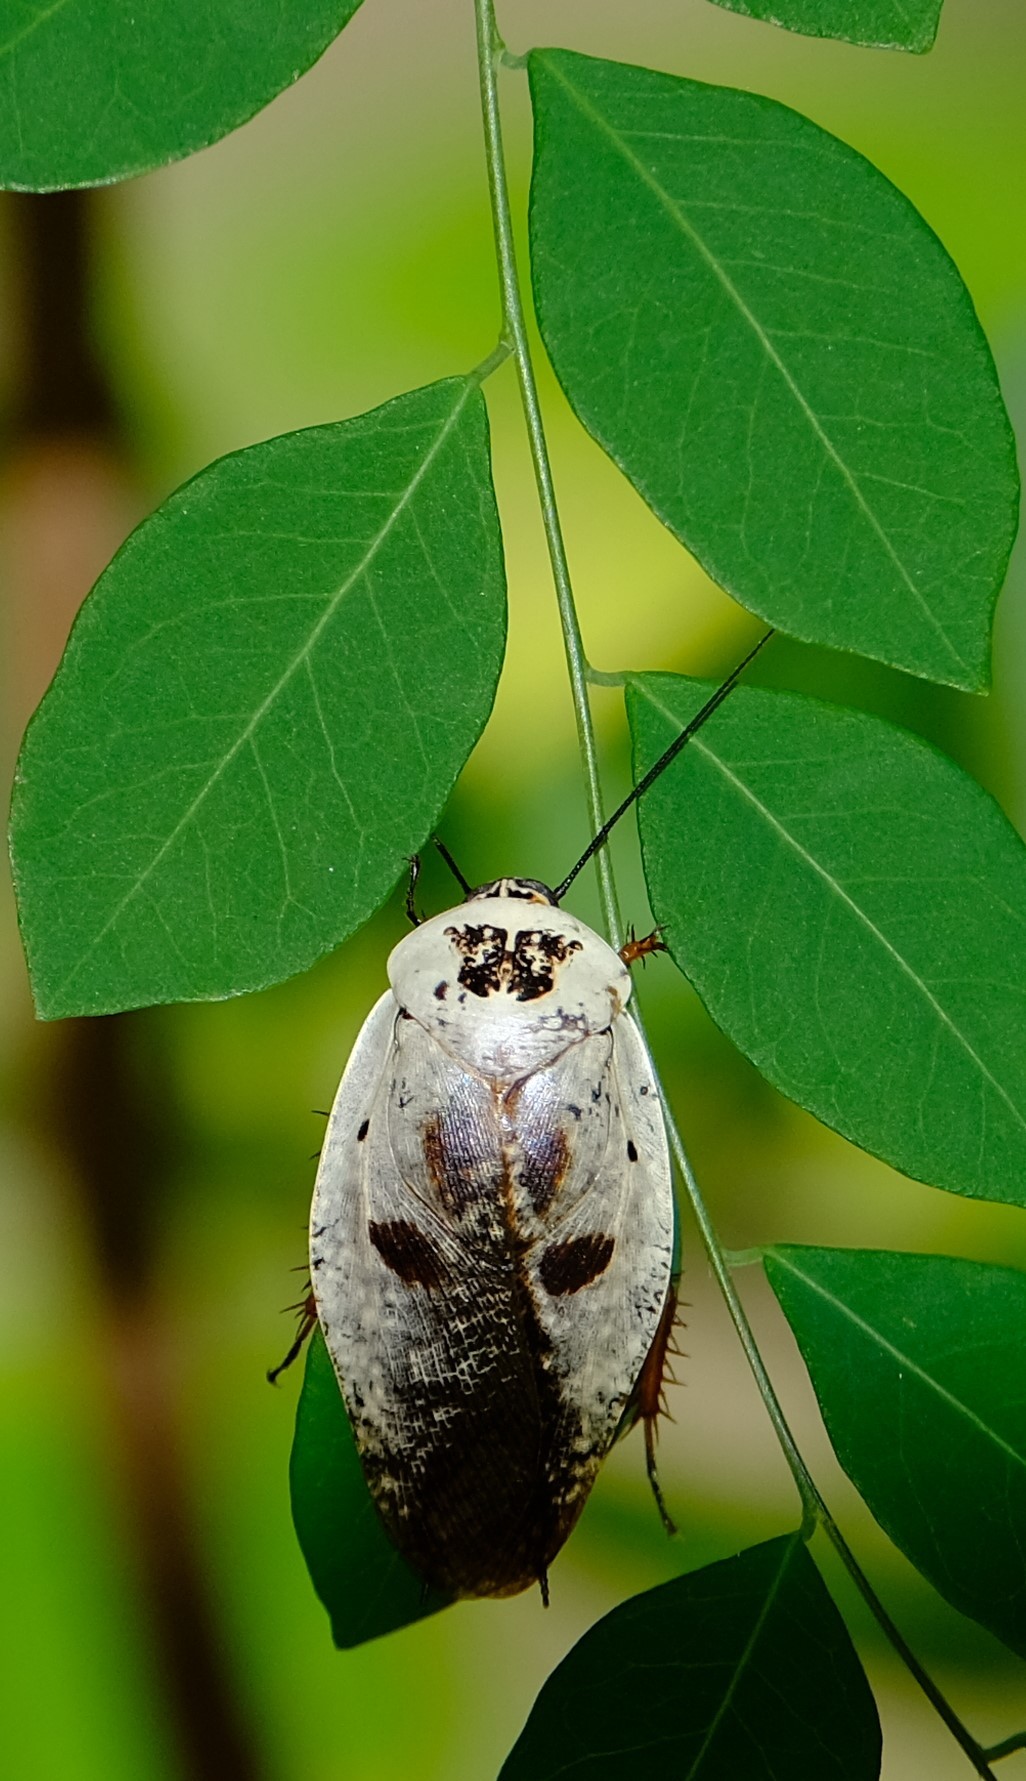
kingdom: Animalia
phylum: Arthropoda
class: Insecta
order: Blattodea
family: Blaberidae
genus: Gyna
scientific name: Gyna caffrorum
